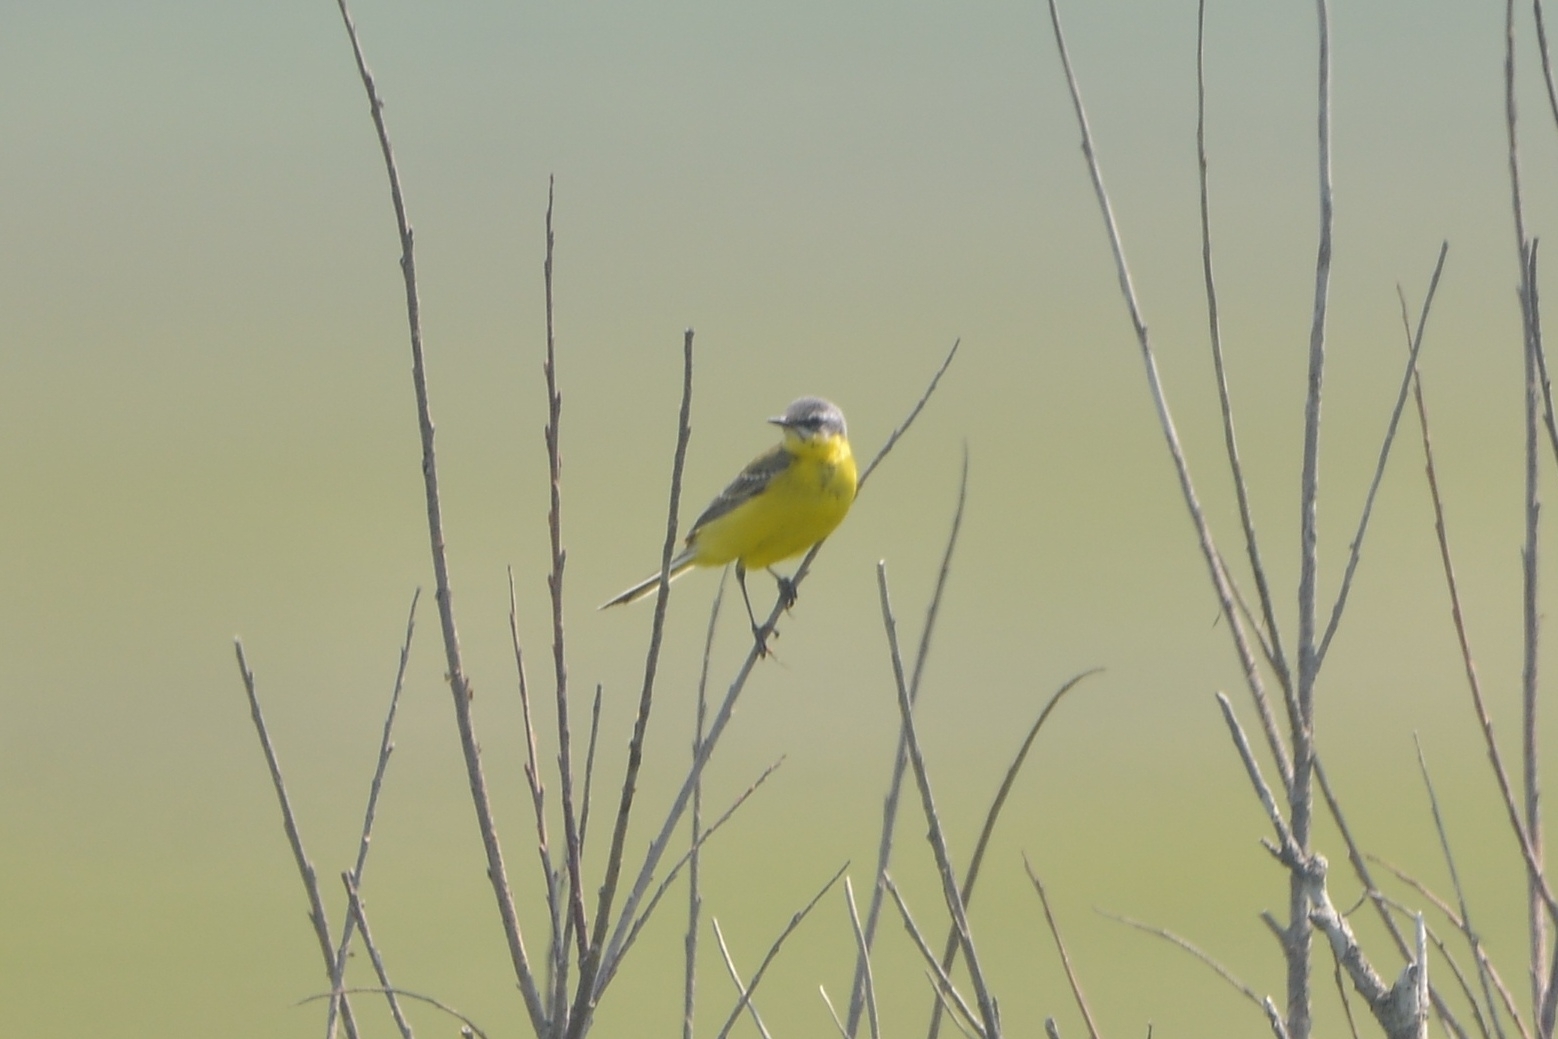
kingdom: Animalia
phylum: Chordata
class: Aves
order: Passeriformes
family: Motacillidae
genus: Motacilla
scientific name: Motacilla tschutschensis
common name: Eastern yellow wagtail
